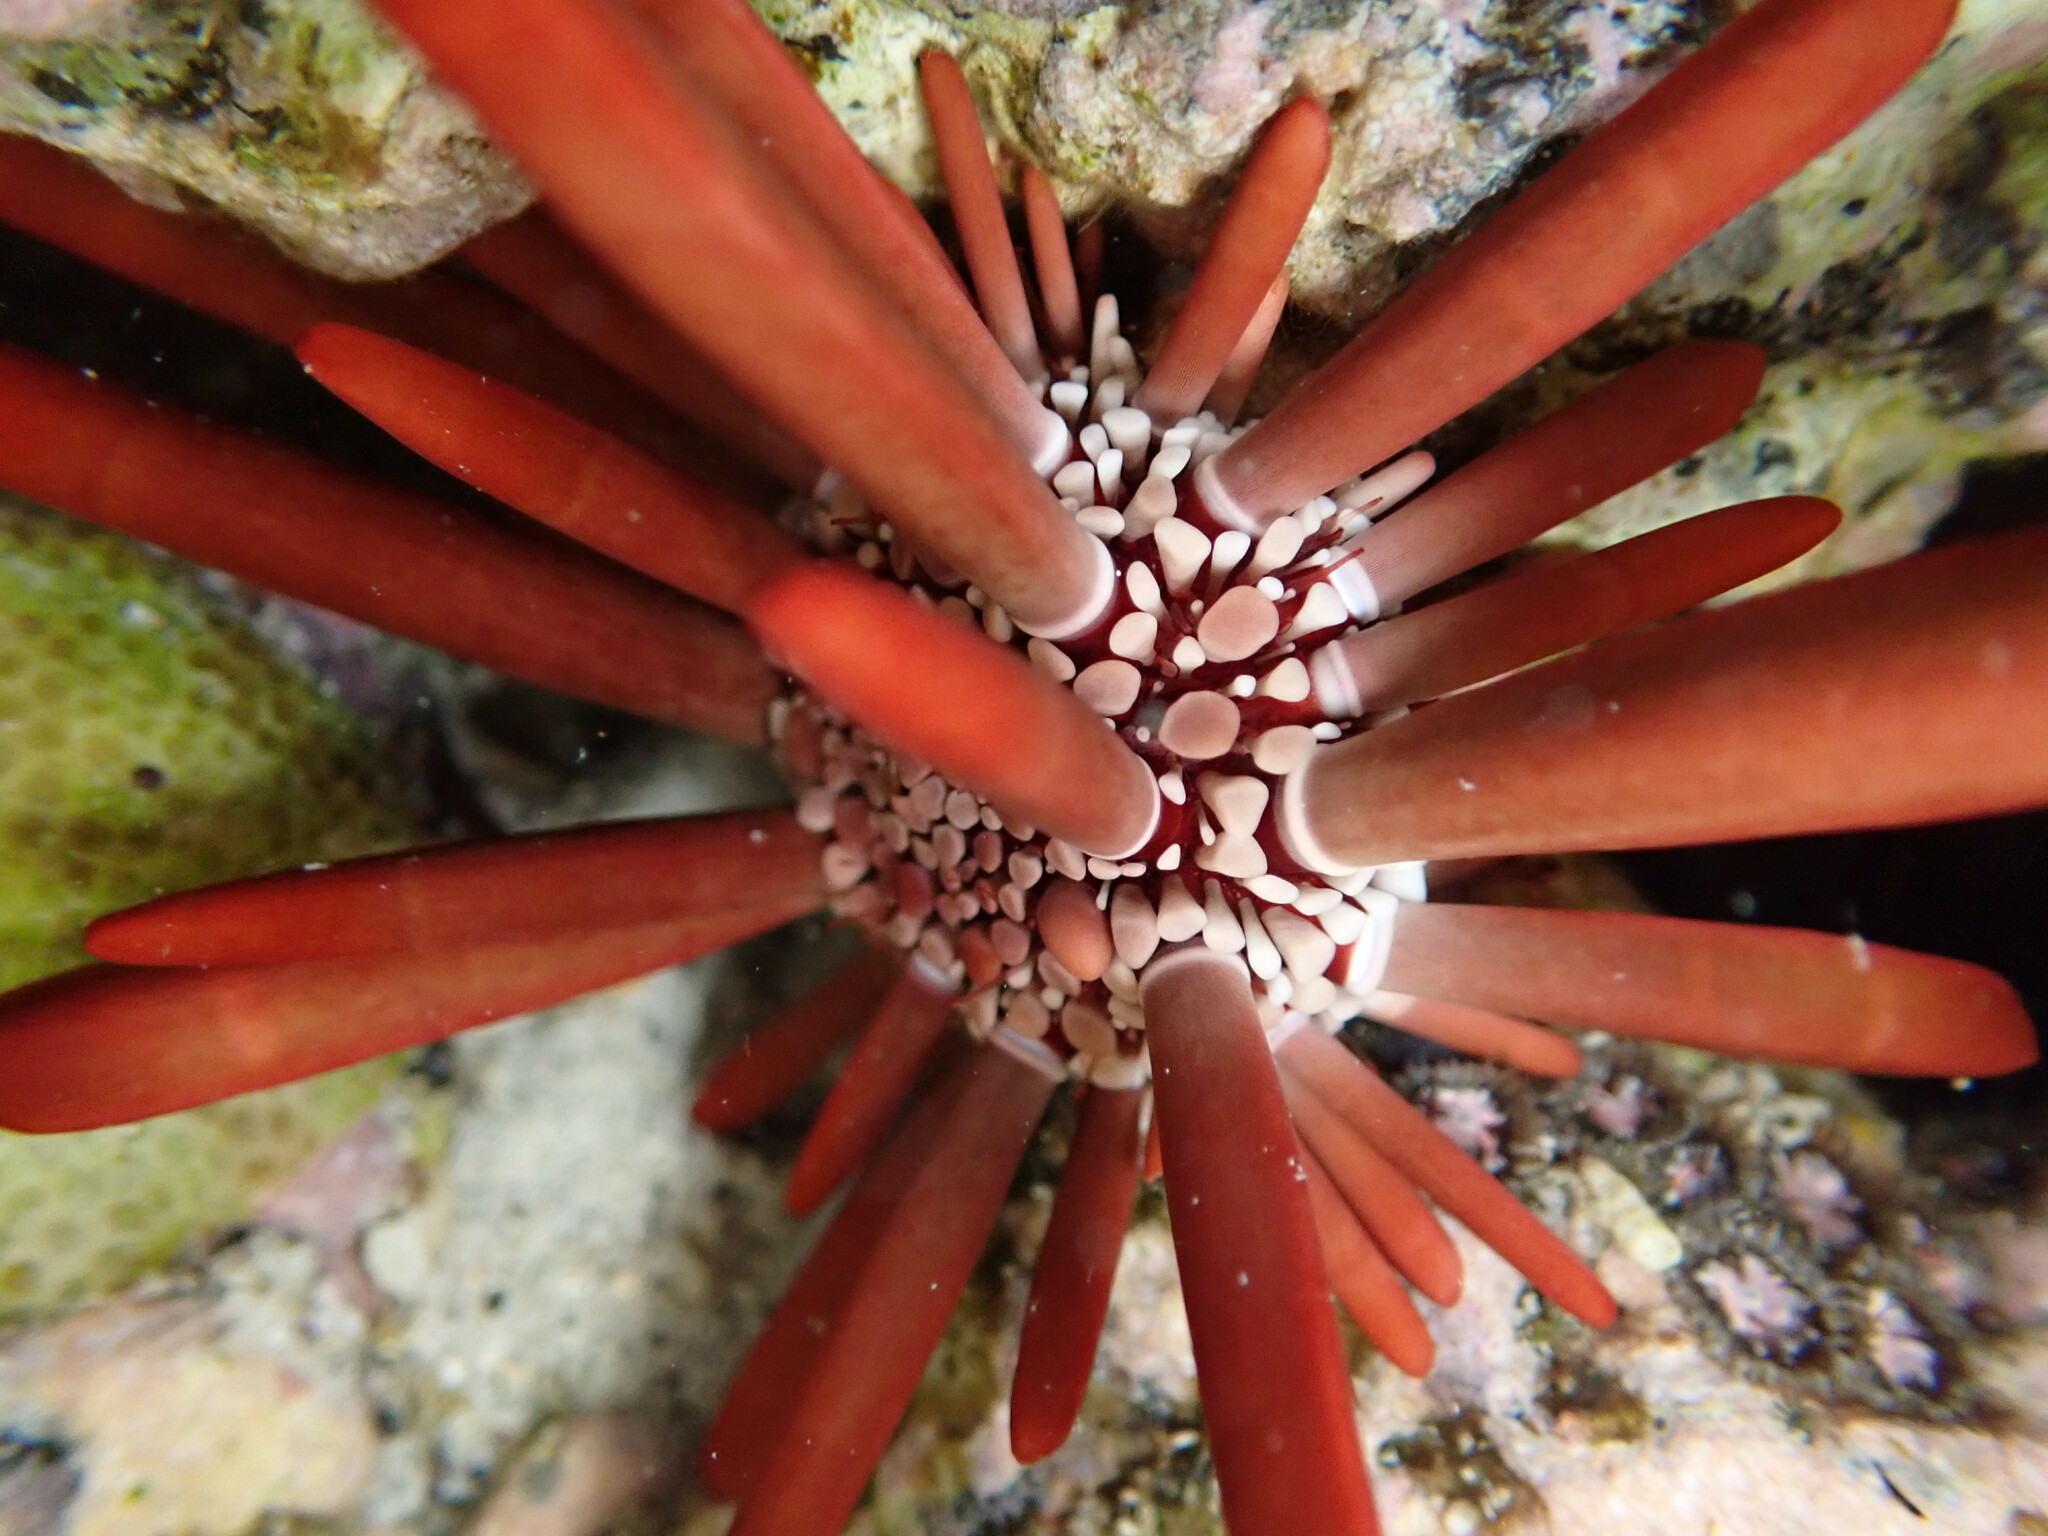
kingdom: Animalia
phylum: Echinodermata
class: Echinoidea
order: Camarodonta
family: Echinometridae
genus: Heterocentrotus
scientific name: Heterocentrotus mamillatus
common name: Slate pencil urchin
